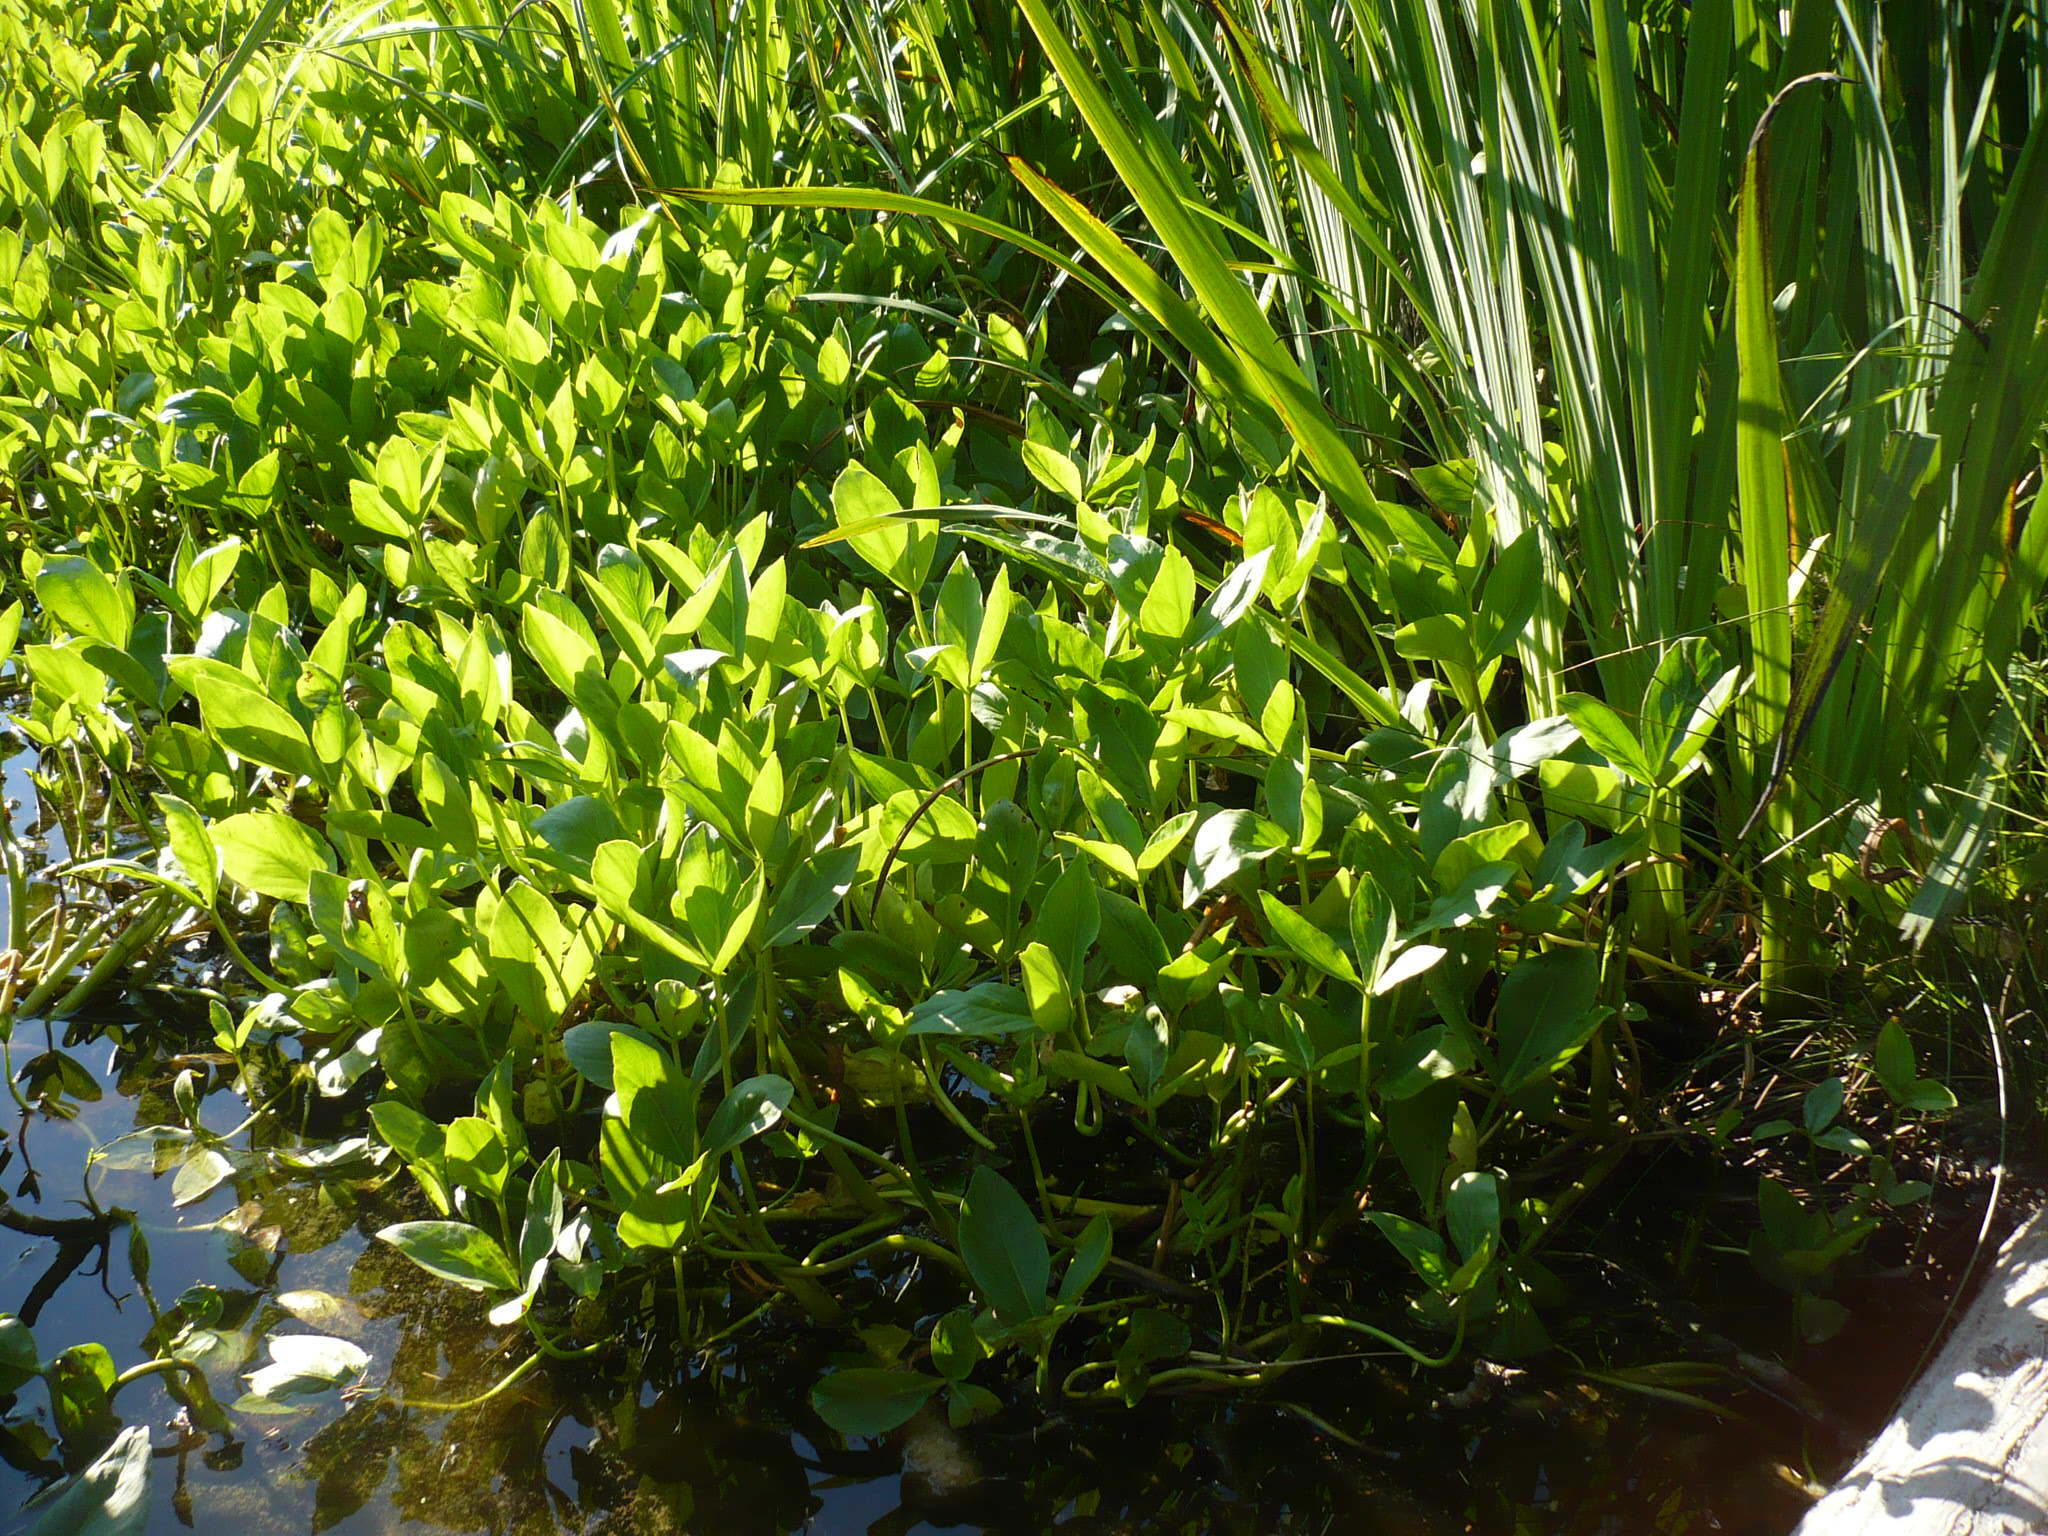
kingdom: Plantae
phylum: Tracheophyta
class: Magnoliopsida
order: Asterales
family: Menyanthaceae
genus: Menyanthes
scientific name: Menyanthes trifoliata
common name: Bogbean
